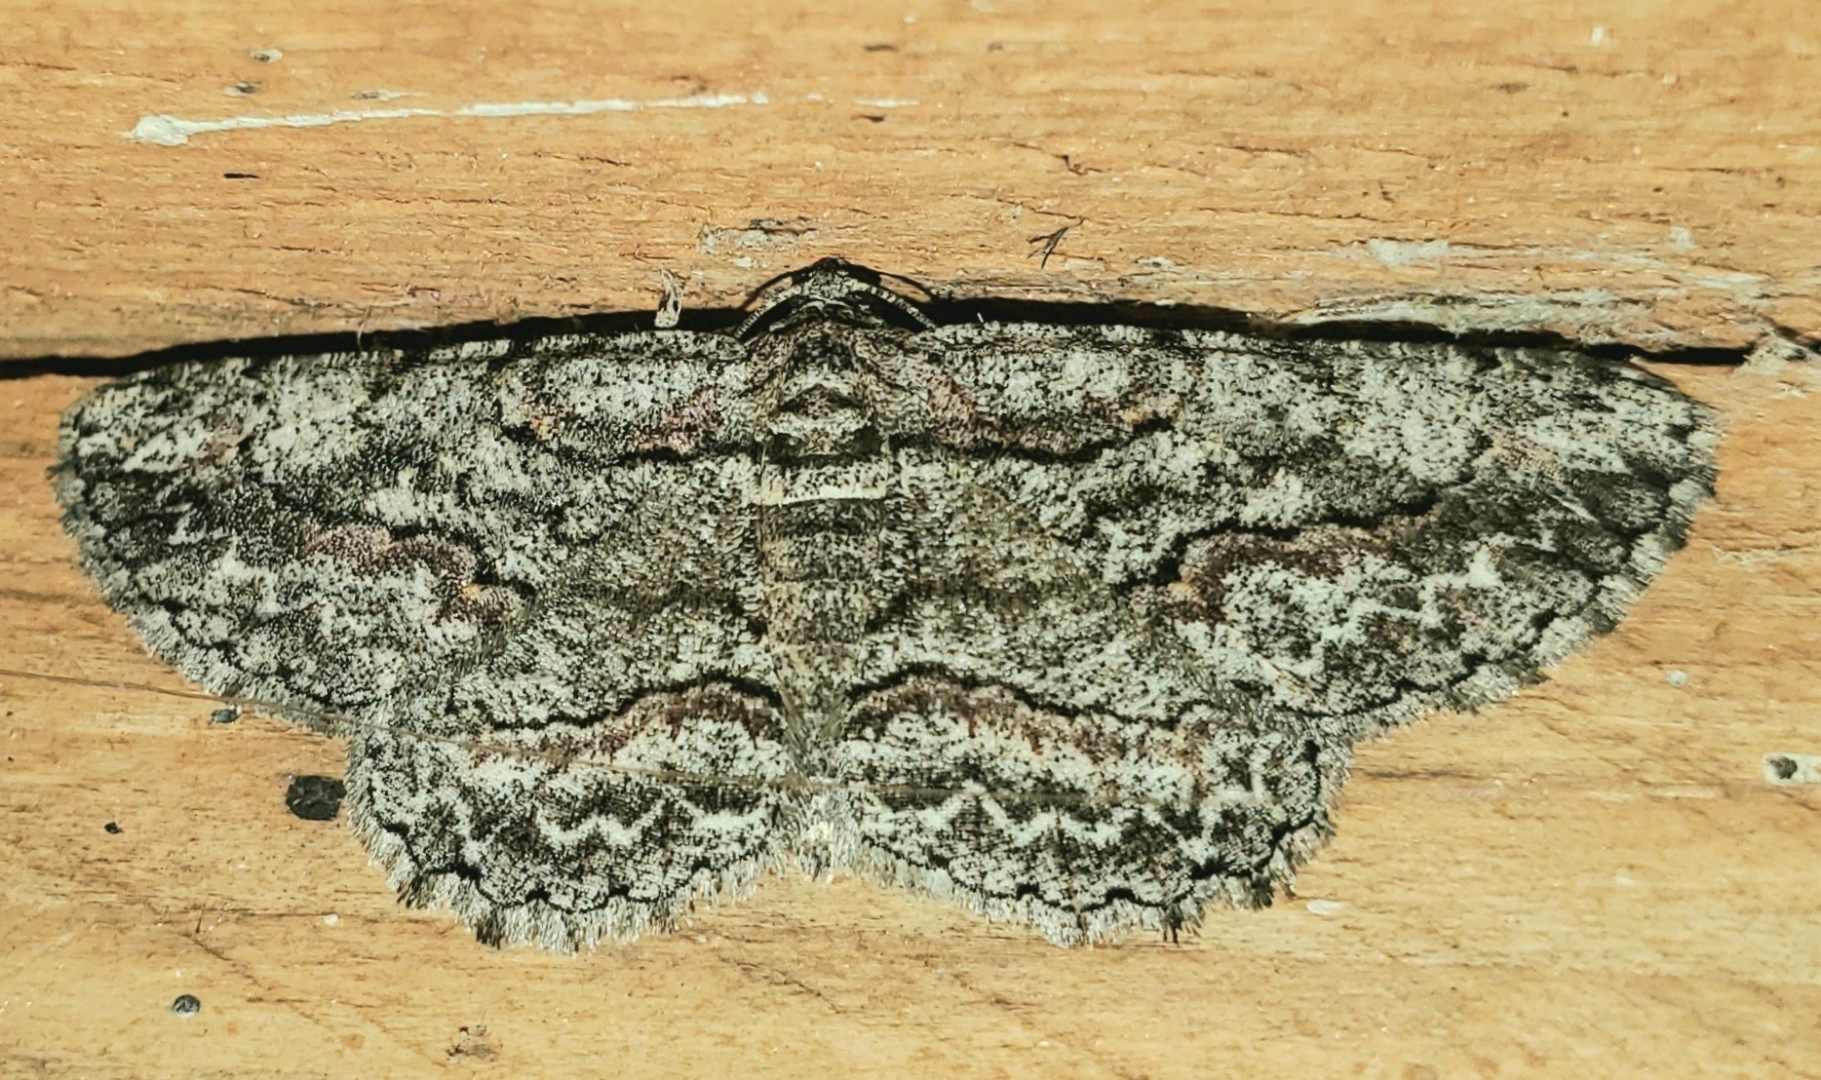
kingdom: Animalia
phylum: Arthropoda
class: Insecta
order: Lepidoptera
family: Geometridae
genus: Anavitrinella
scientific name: Anavitrinella pampinaria
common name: Common gray
